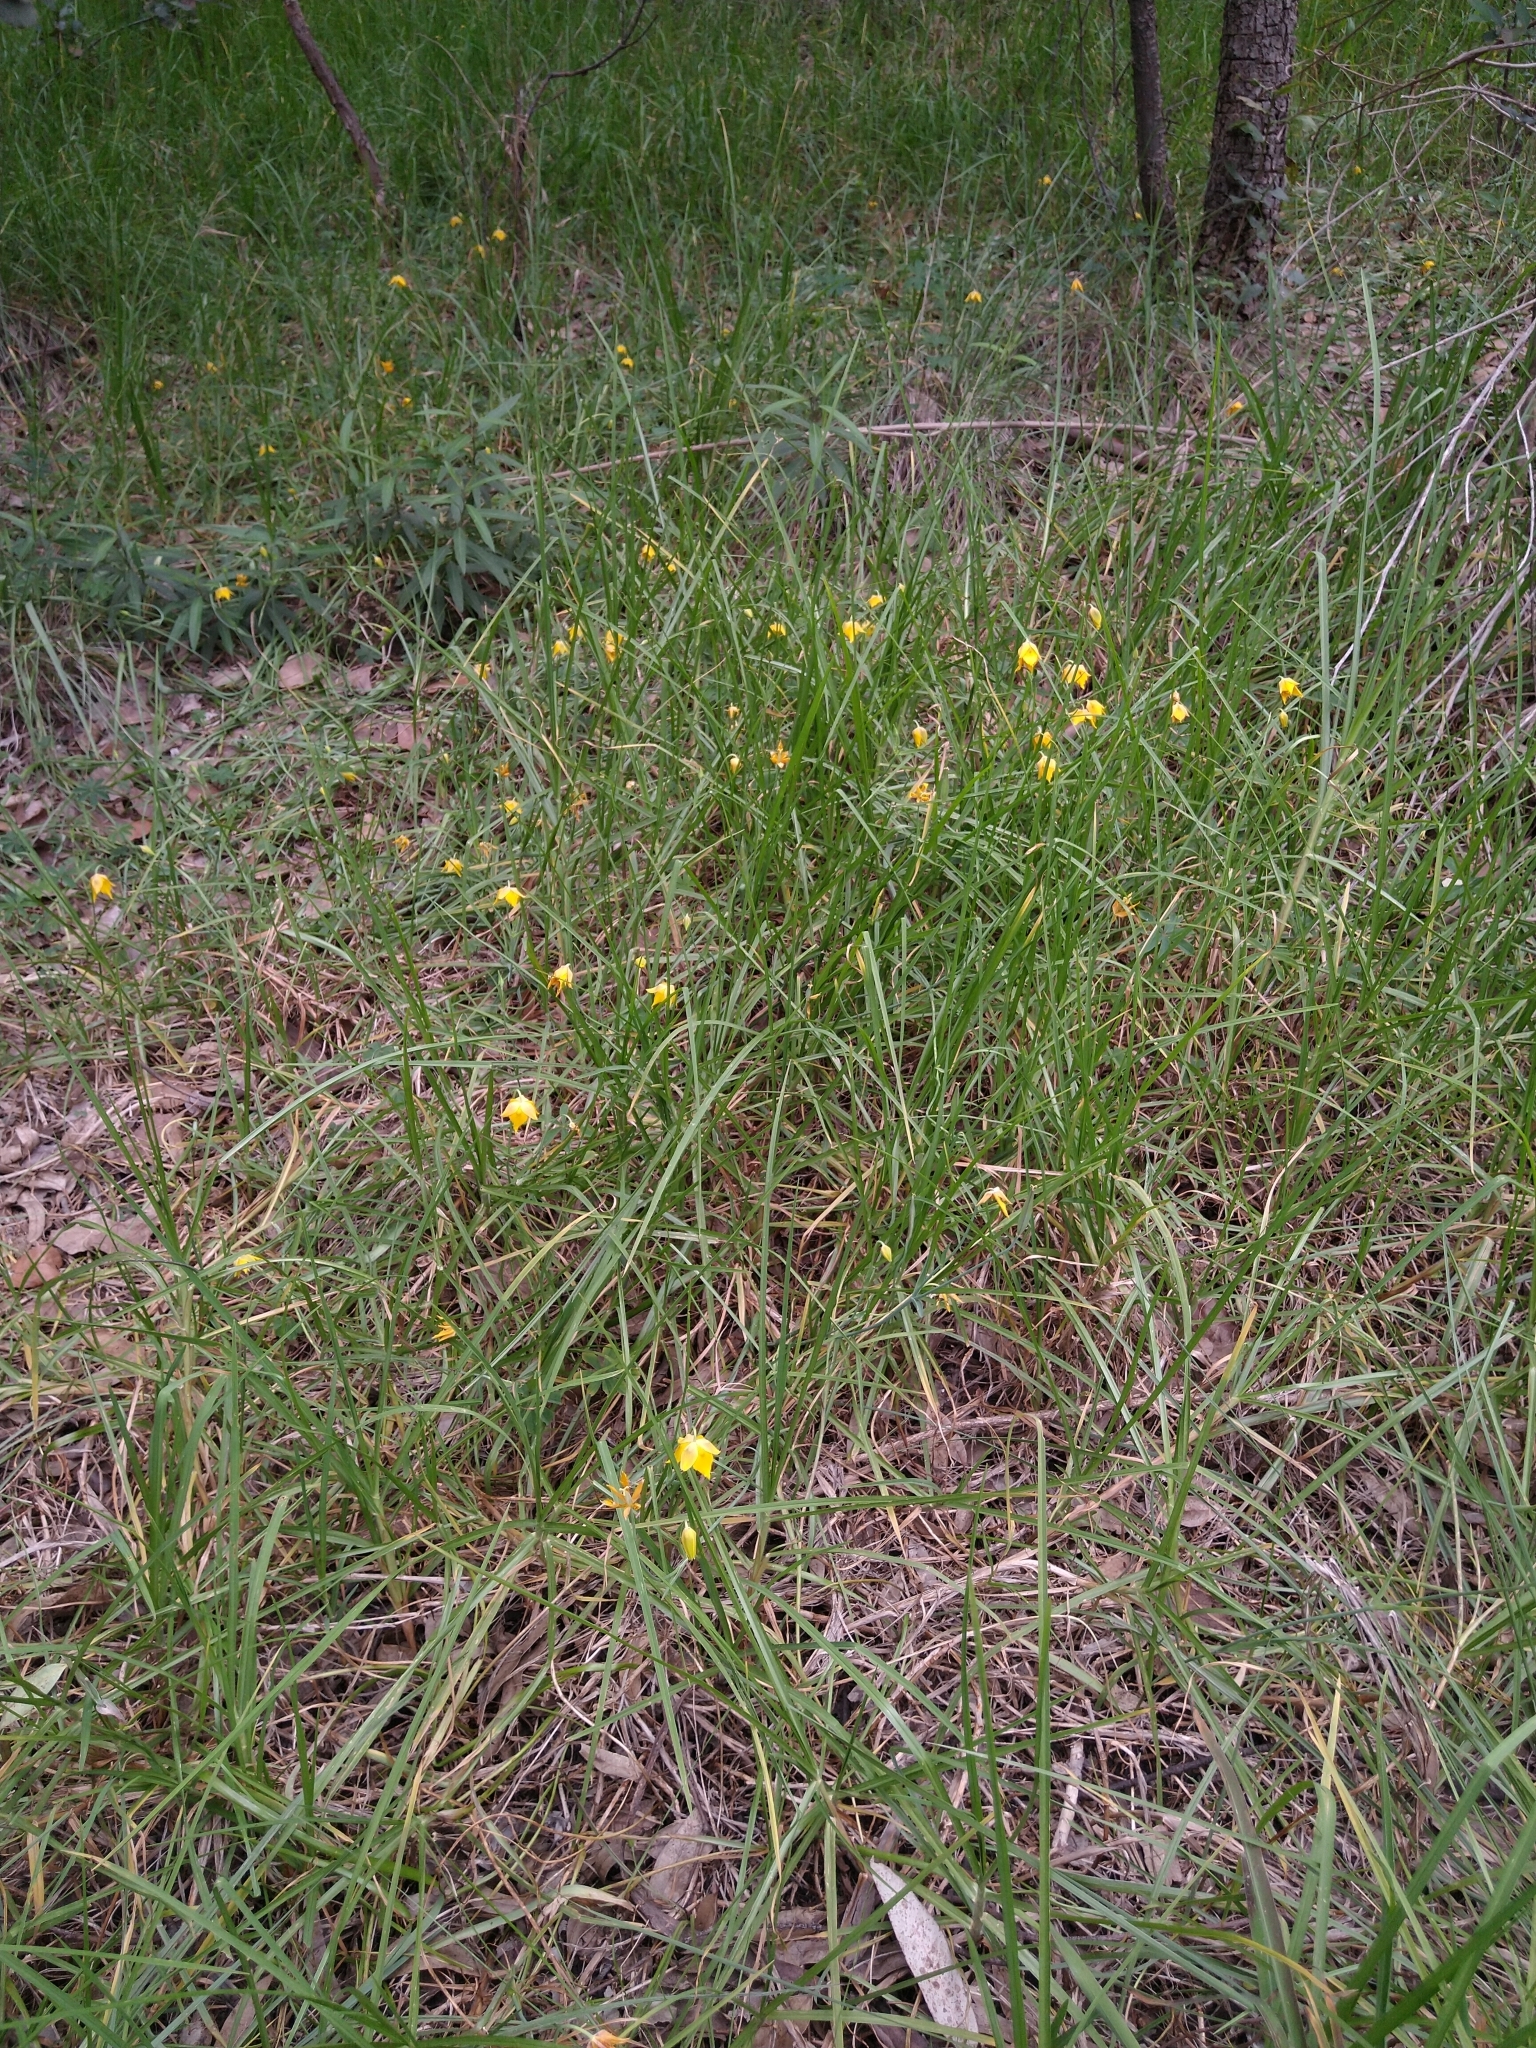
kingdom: Plantae
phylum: Tracheophyta
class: Liliopsida
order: Liliales
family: Liliaceae
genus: Calochortus
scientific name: Calochortus barbatus
